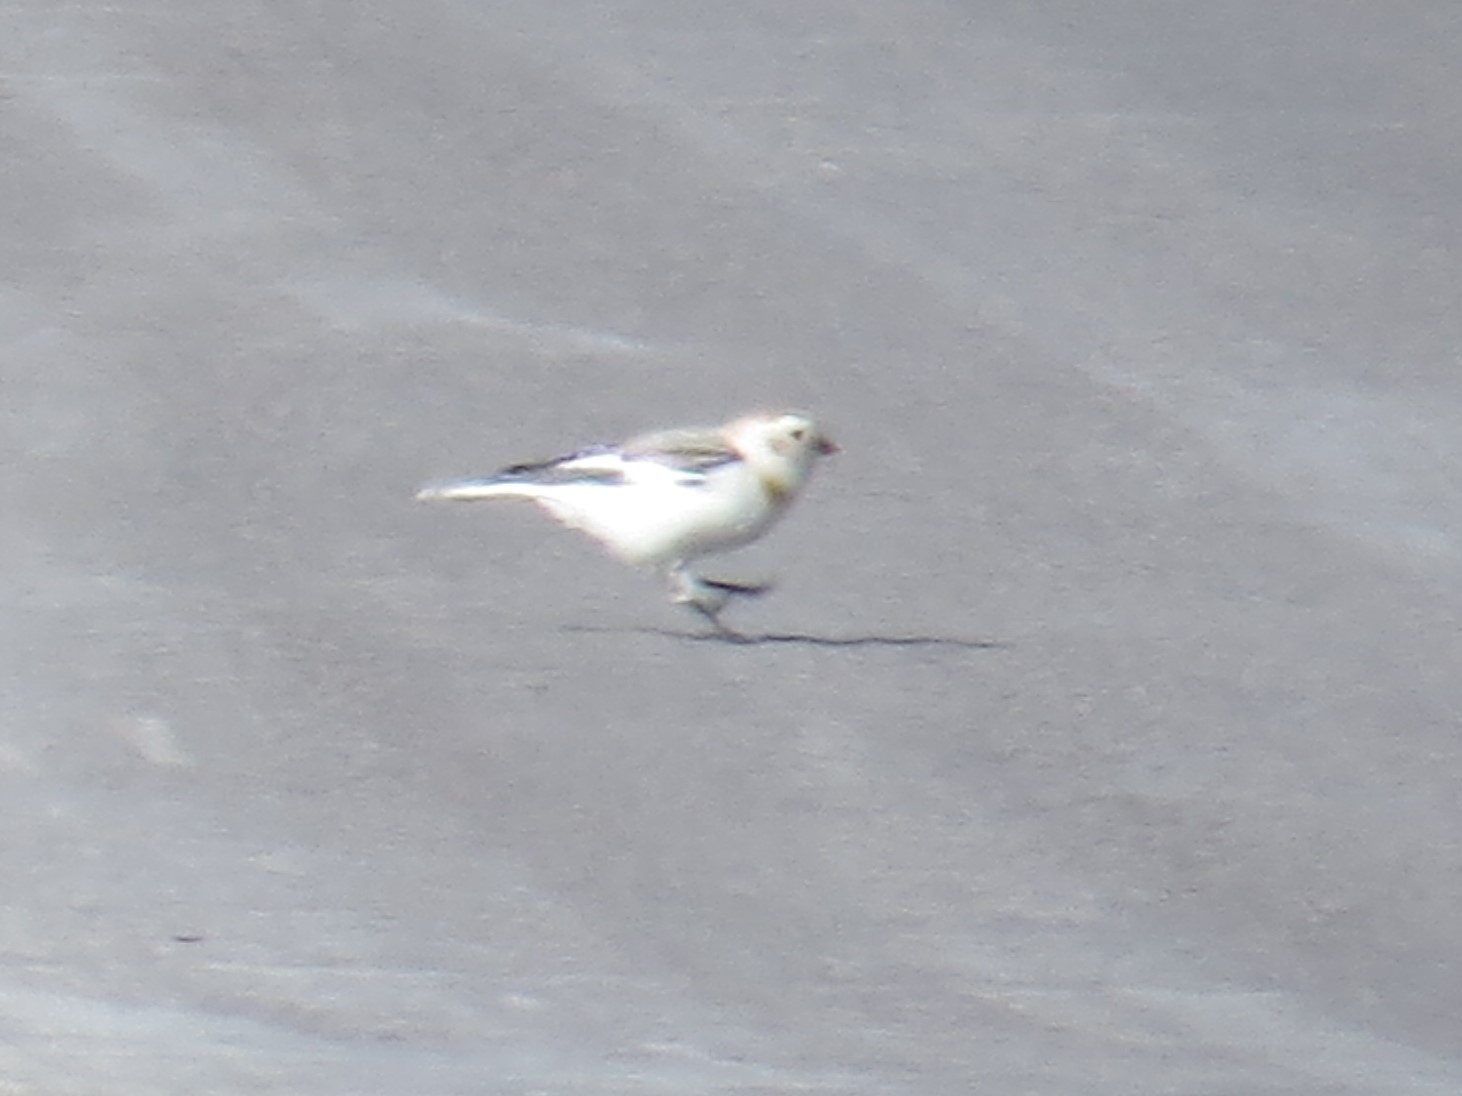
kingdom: Animalia
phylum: Chordata
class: Aves
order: Passeriformes
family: Calcariidae
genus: Plectrophenax
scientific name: Plectrophenax nivalis
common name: Snow bunting
